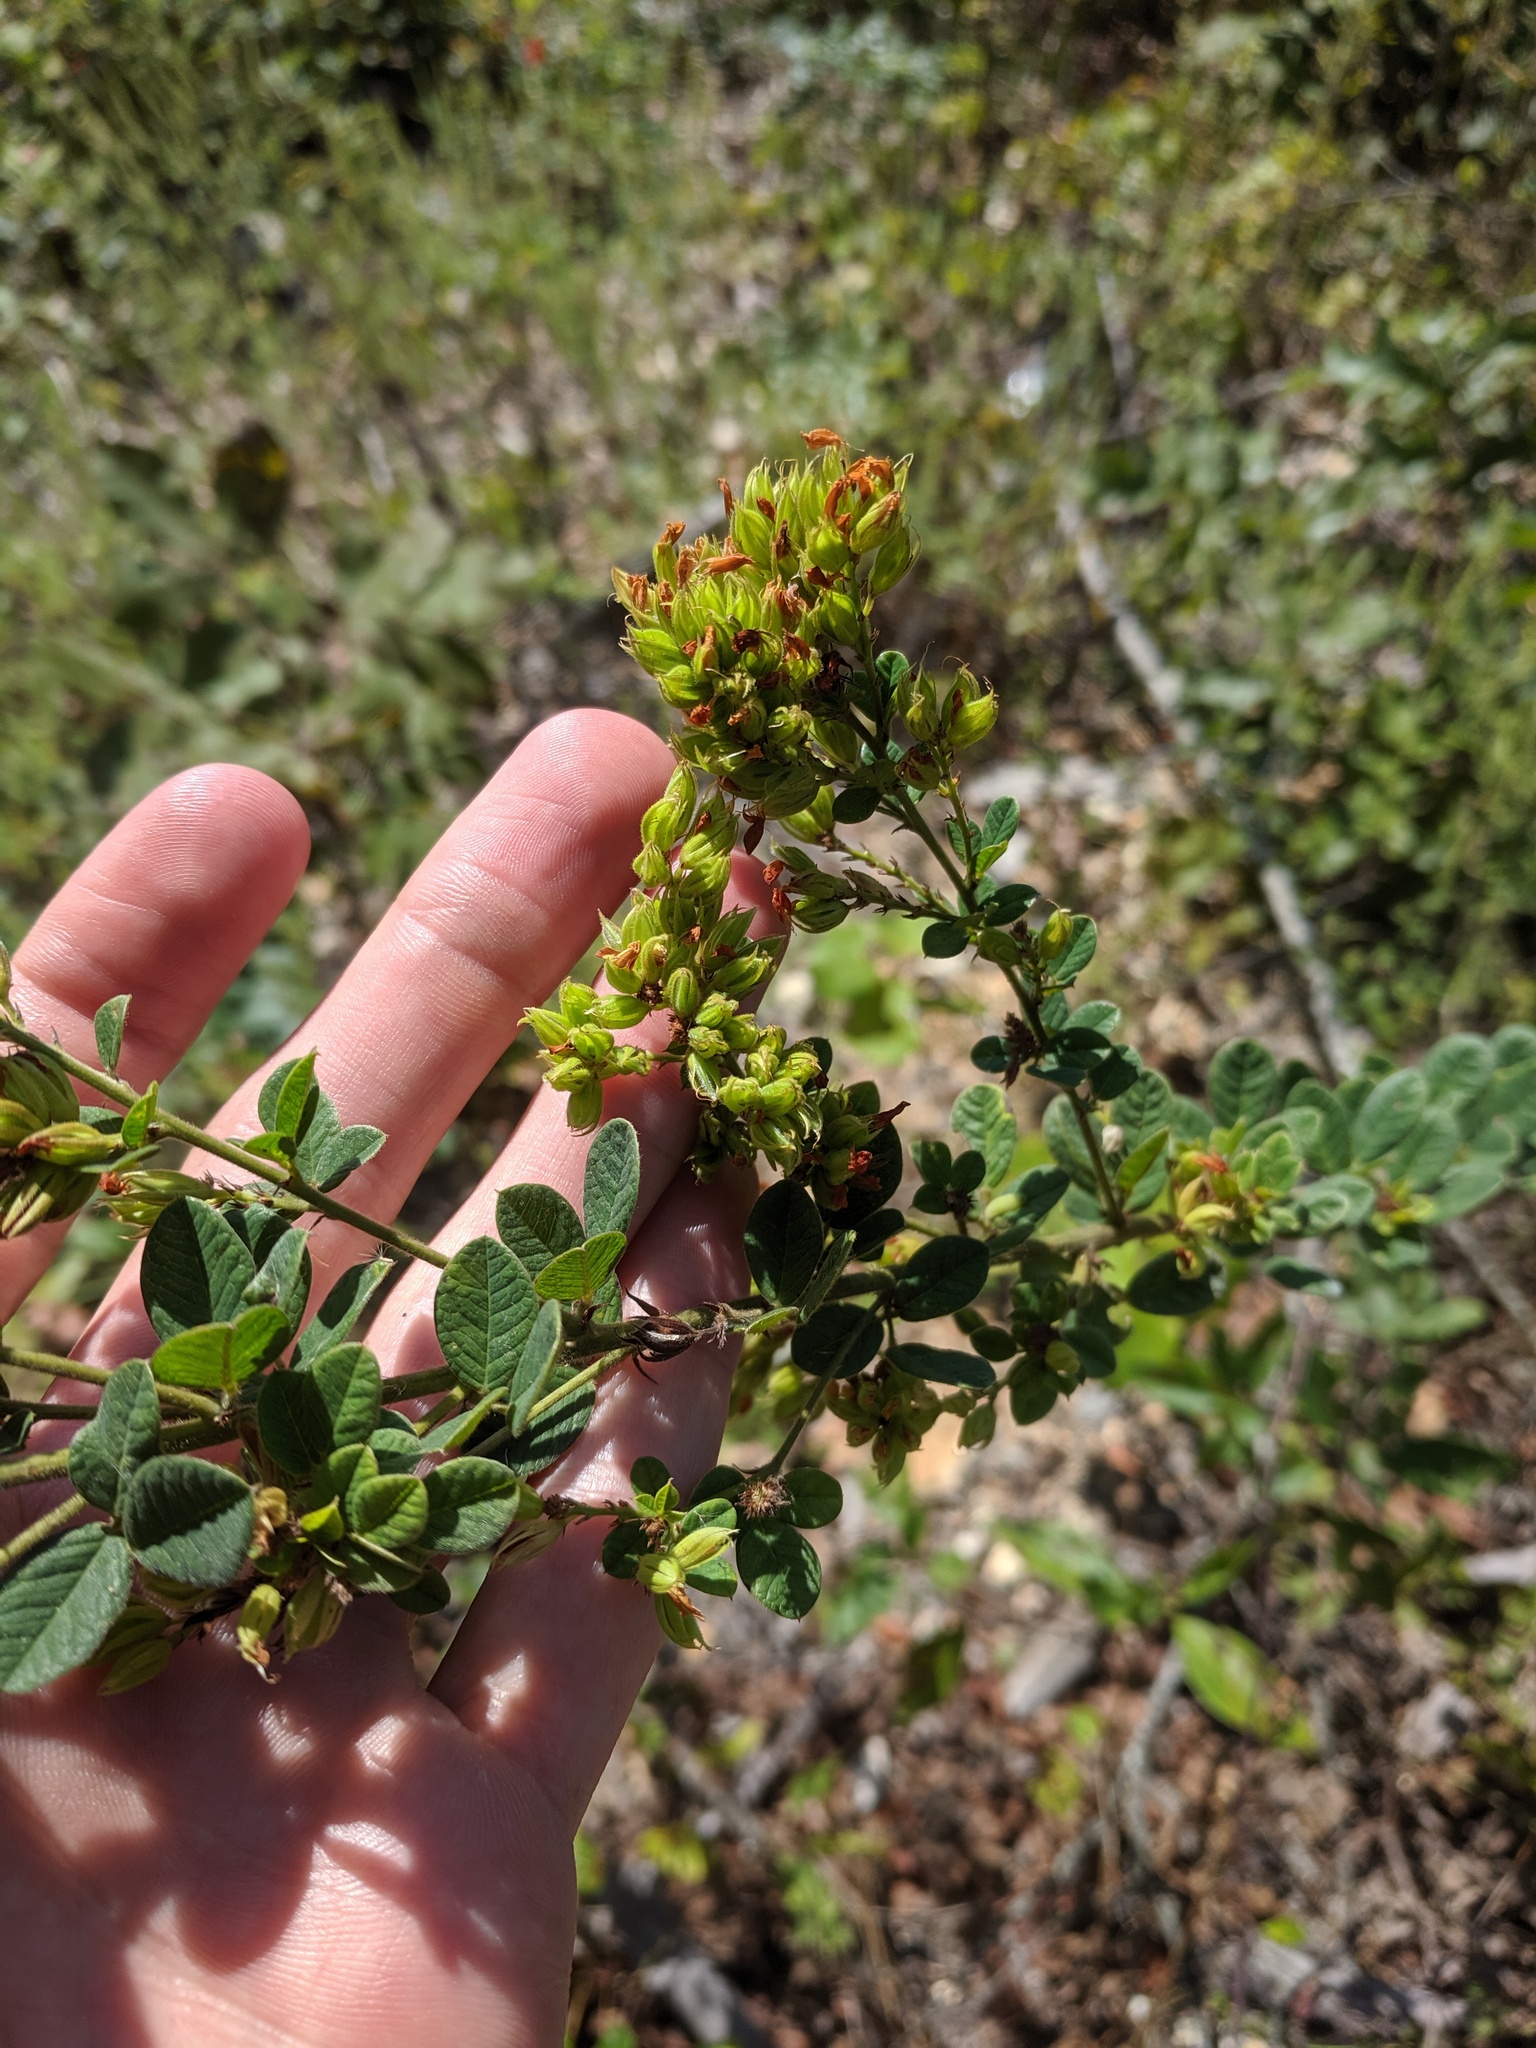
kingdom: Plantae
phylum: Tracheophyta
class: Magnoliopsida
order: Fabales
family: Fabaceae
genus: Lespedeza
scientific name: Lespedeza hirta
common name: Hairy lespedeza
